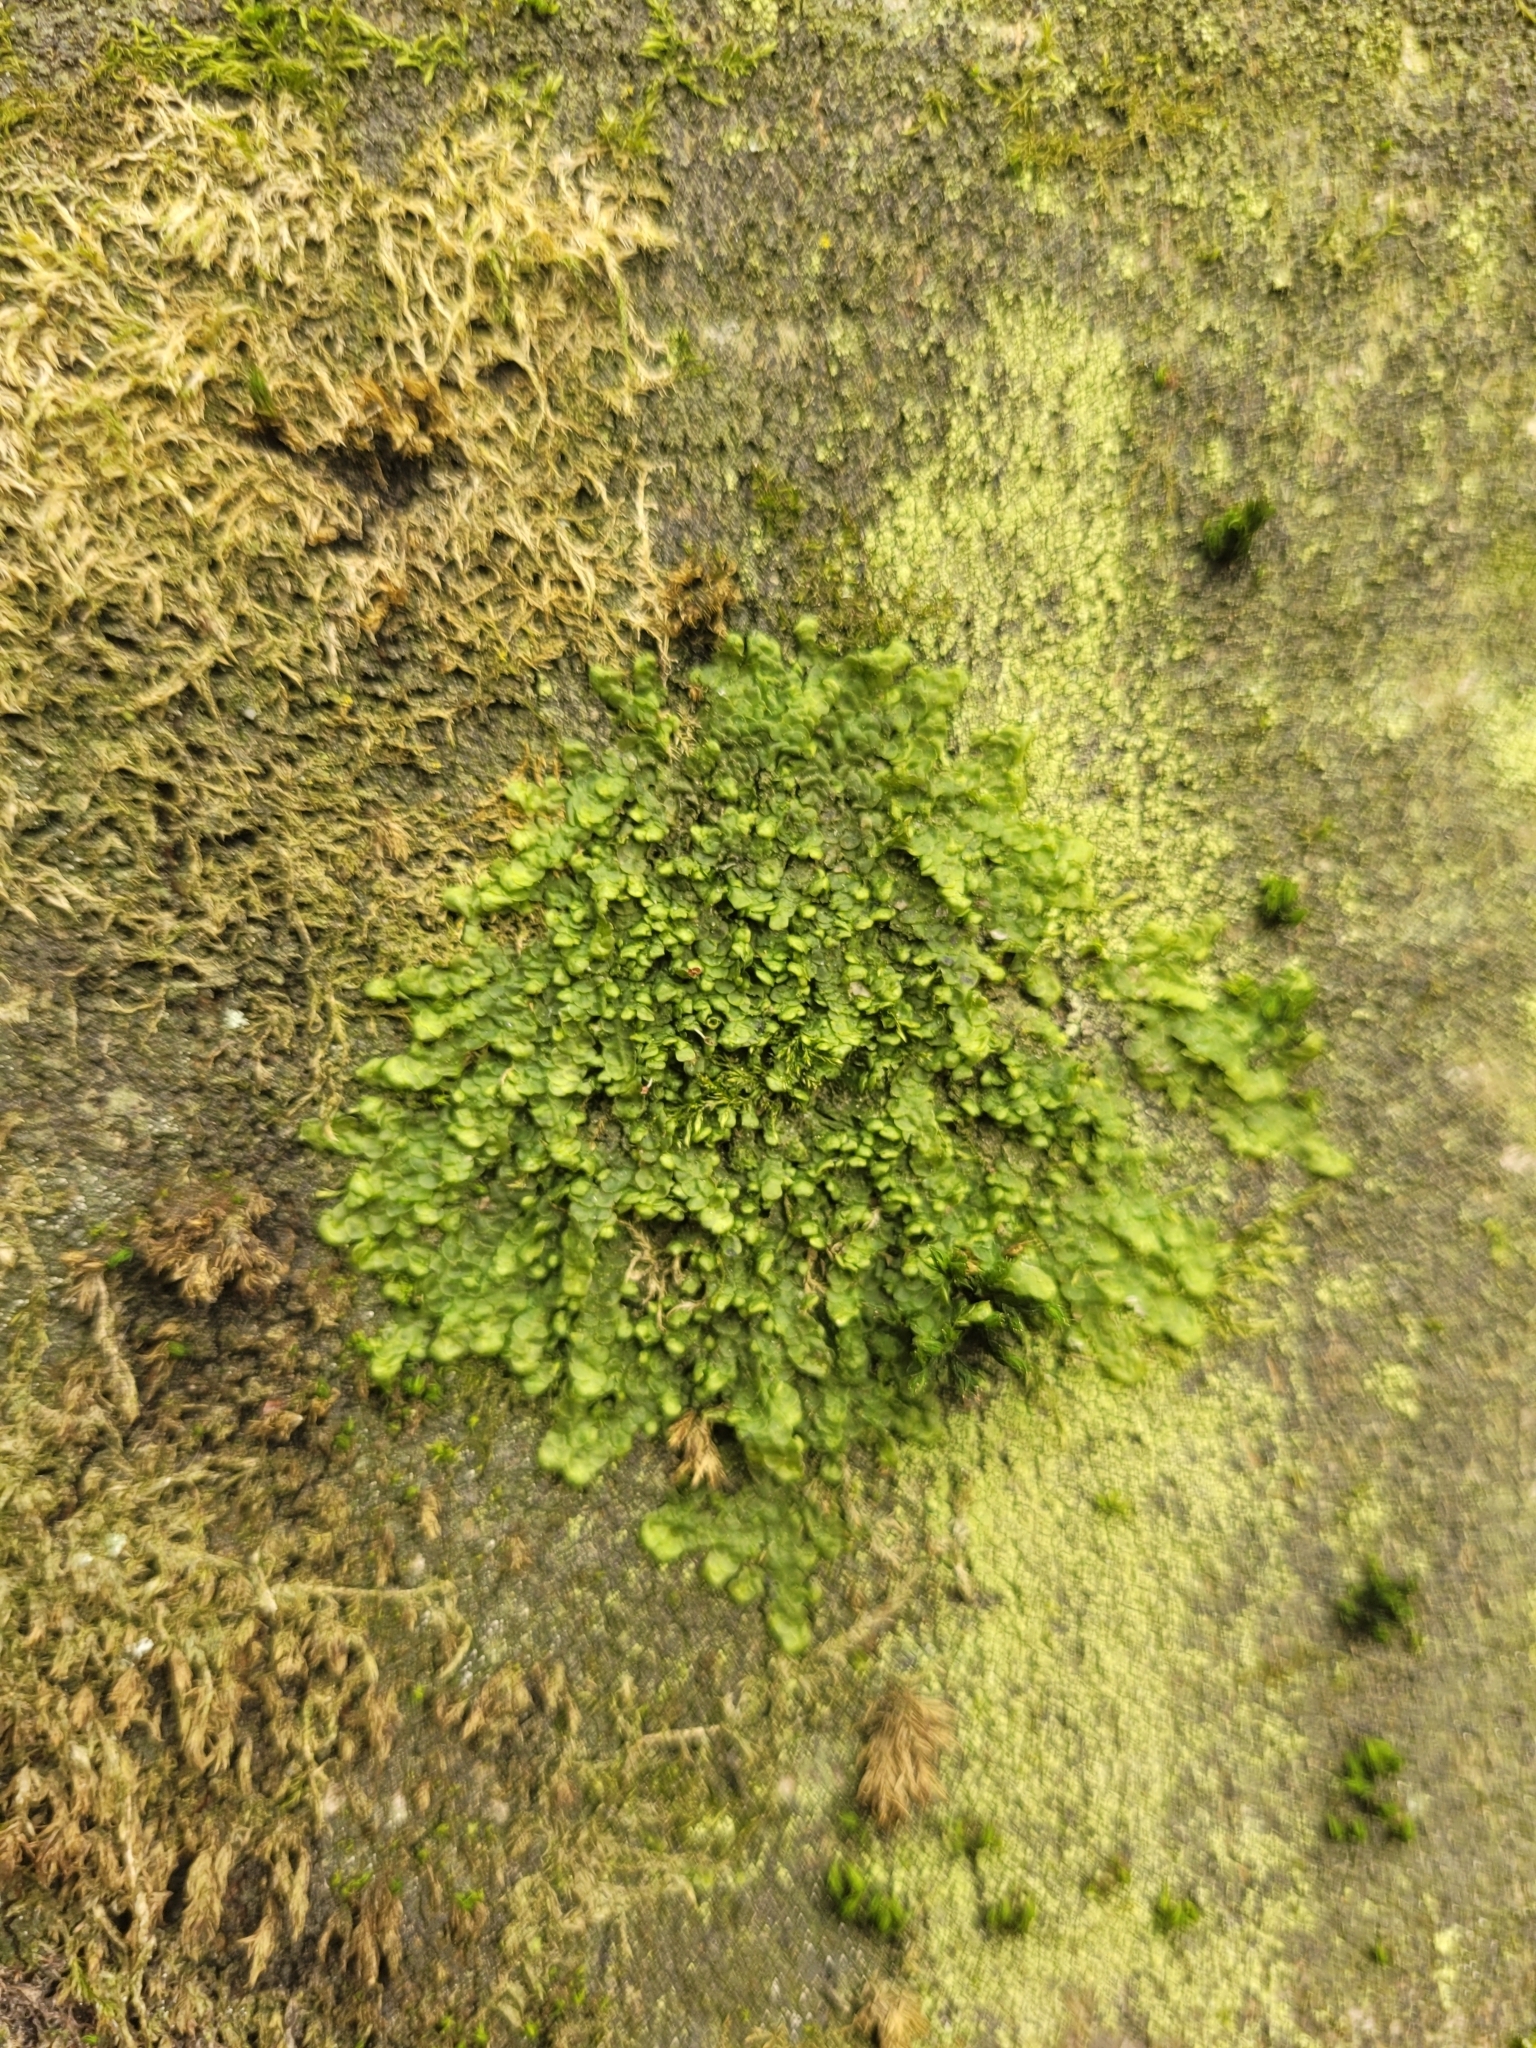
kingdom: Plantae
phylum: Marchantiophyta
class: Jungermanniopsida
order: Porellales
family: Radulaceae
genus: Radula
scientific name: Radula complanata
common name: Flat-leaved scalewort
